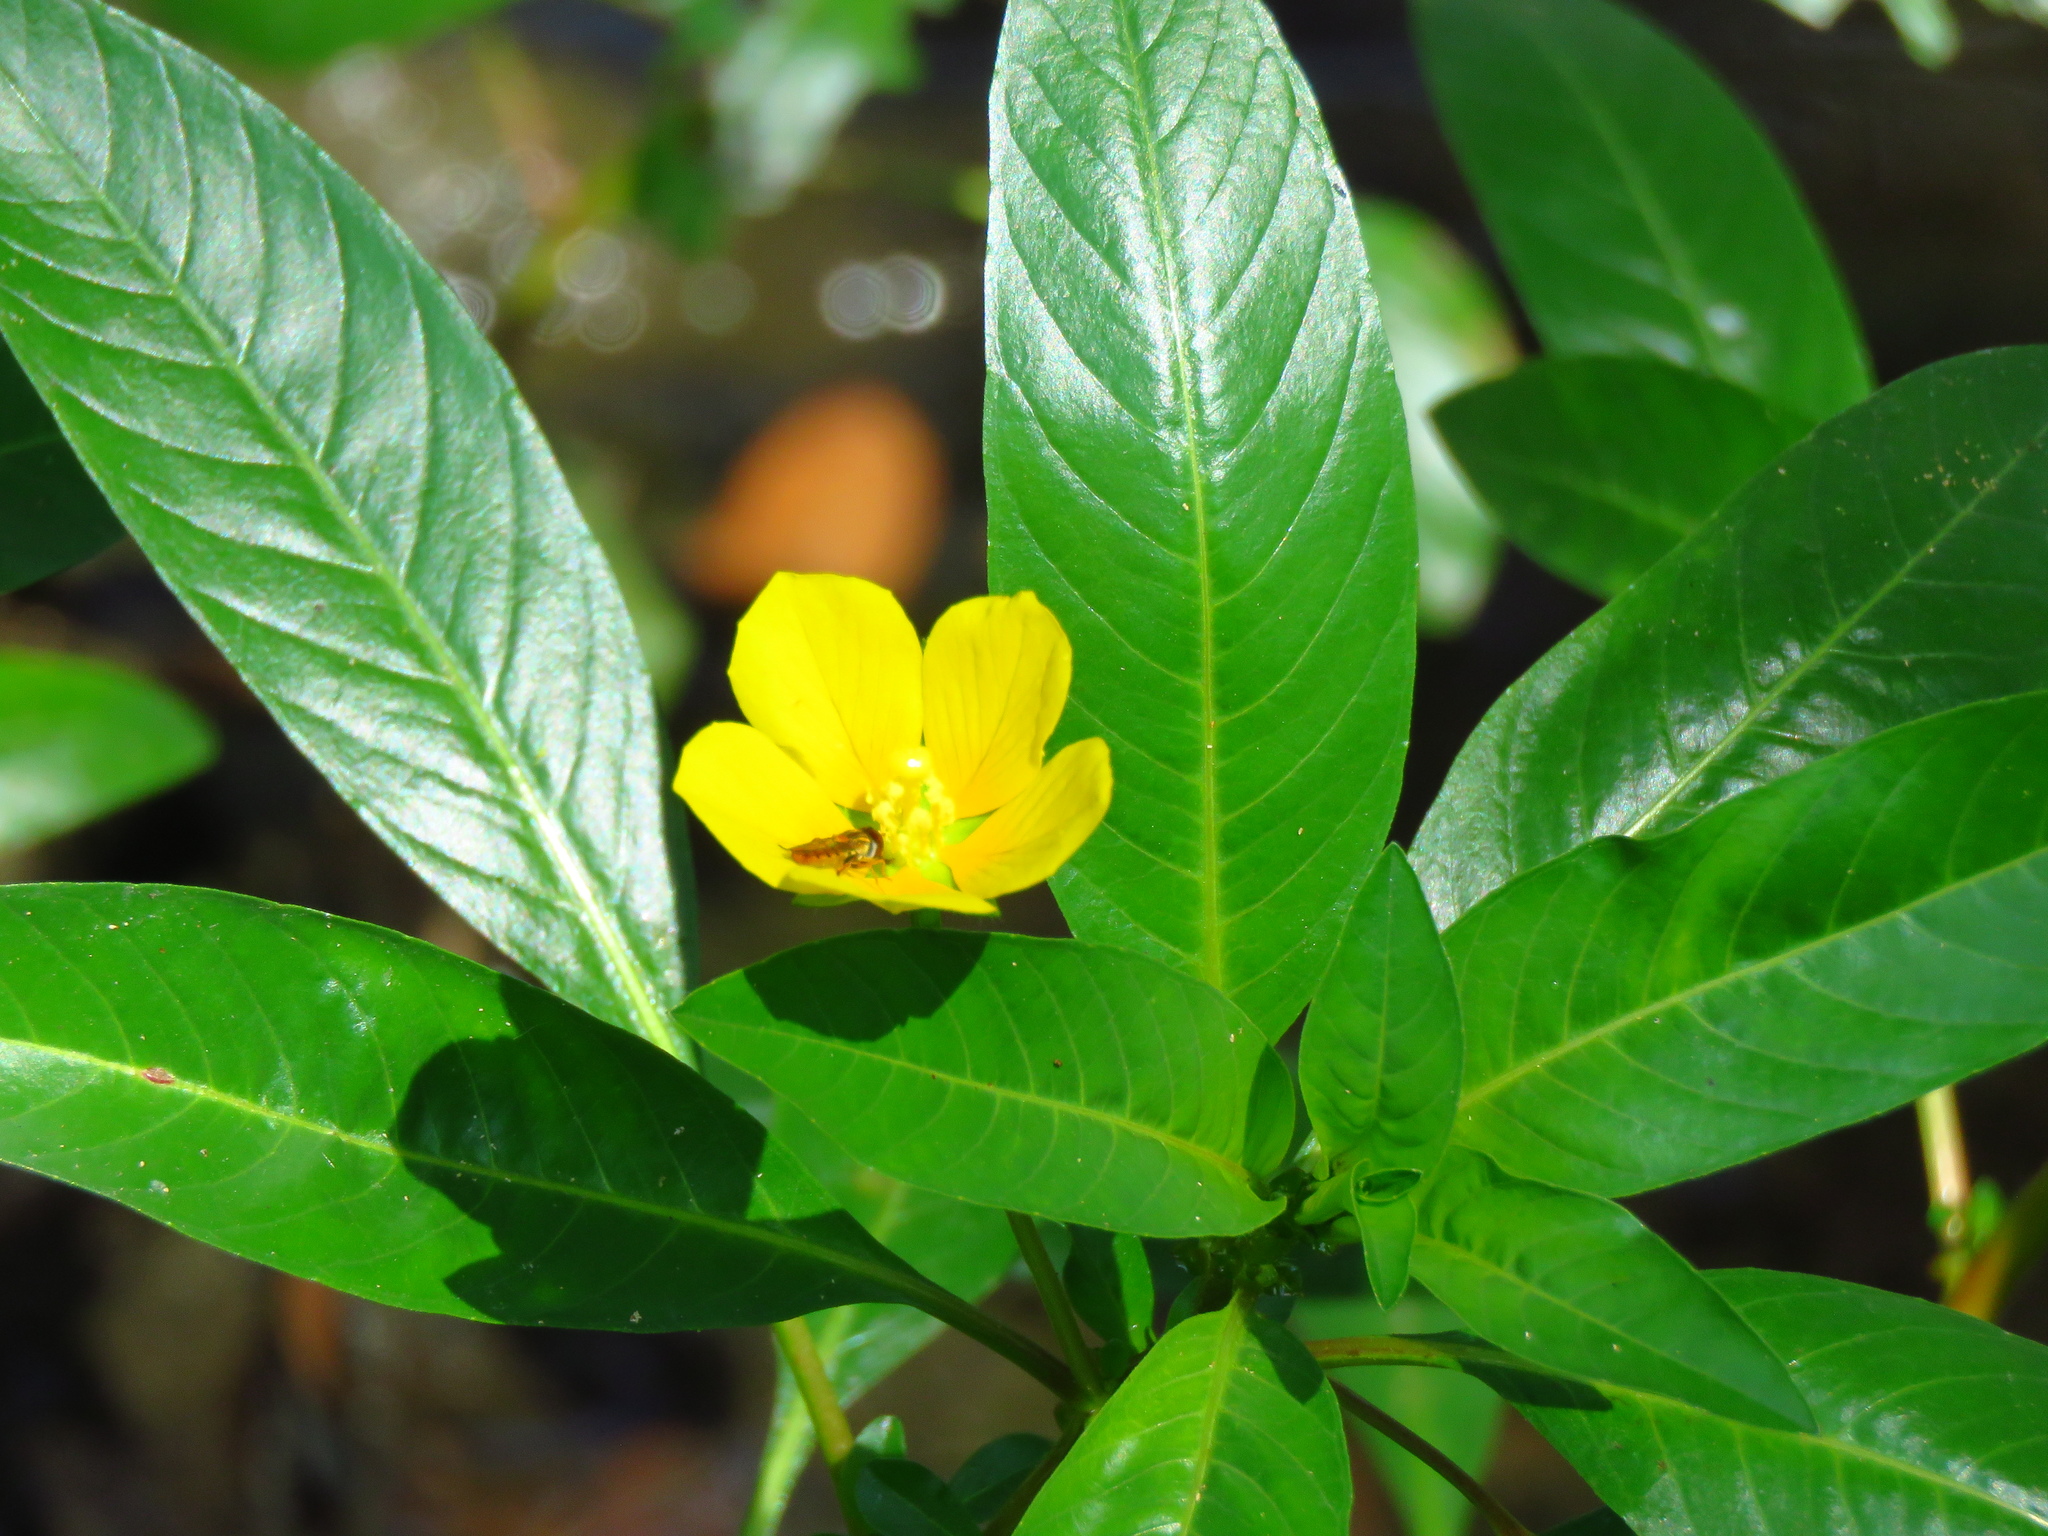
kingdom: Plantae
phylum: Tracheophyta
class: Magnoliopsida
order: Myrtales
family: Onagraceae
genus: Ludwigia
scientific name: Ludwigia peploides
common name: Floating primrose-willow
